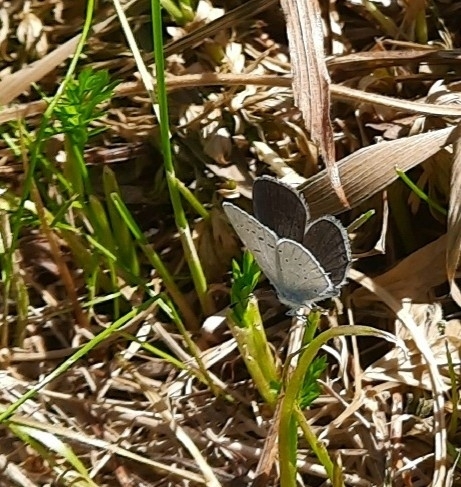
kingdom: Animalia
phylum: Arthropoda
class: Insecta
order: Lepidoptera
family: Lycaenidae
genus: Elkalyce
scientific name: Elkalyce argiades
